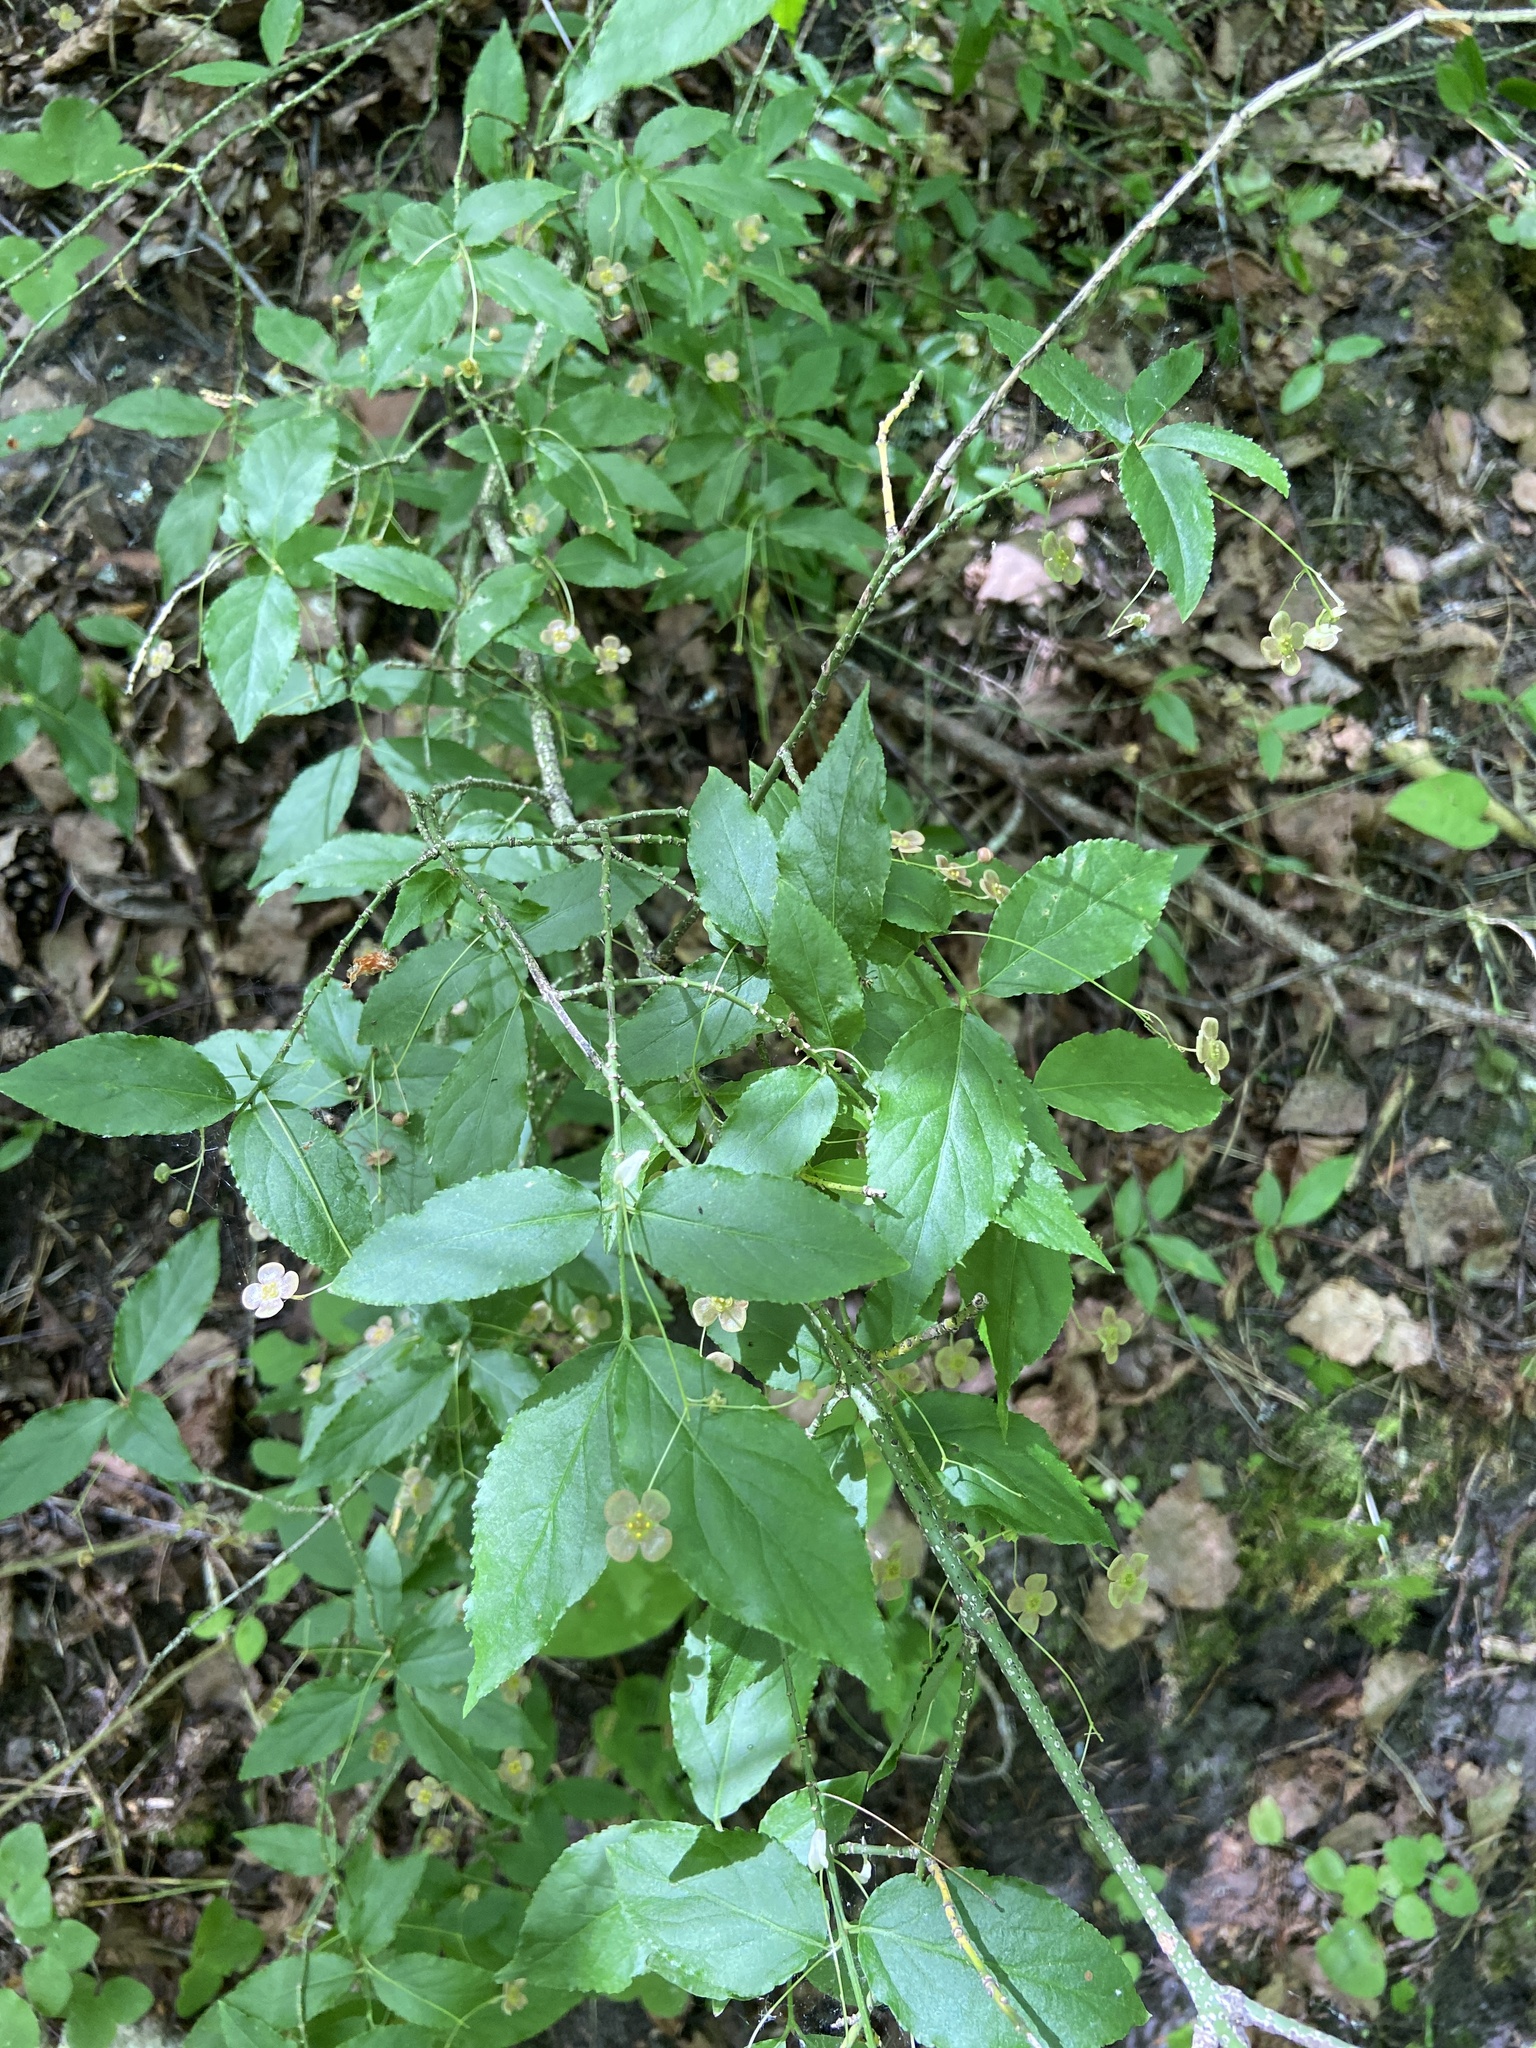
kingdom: Plantae
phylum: Tracheophyta
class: Magnoliopsida
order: Celastrales
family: Celastraceae
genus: Euonymus
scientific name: Euonymus verrucosus
